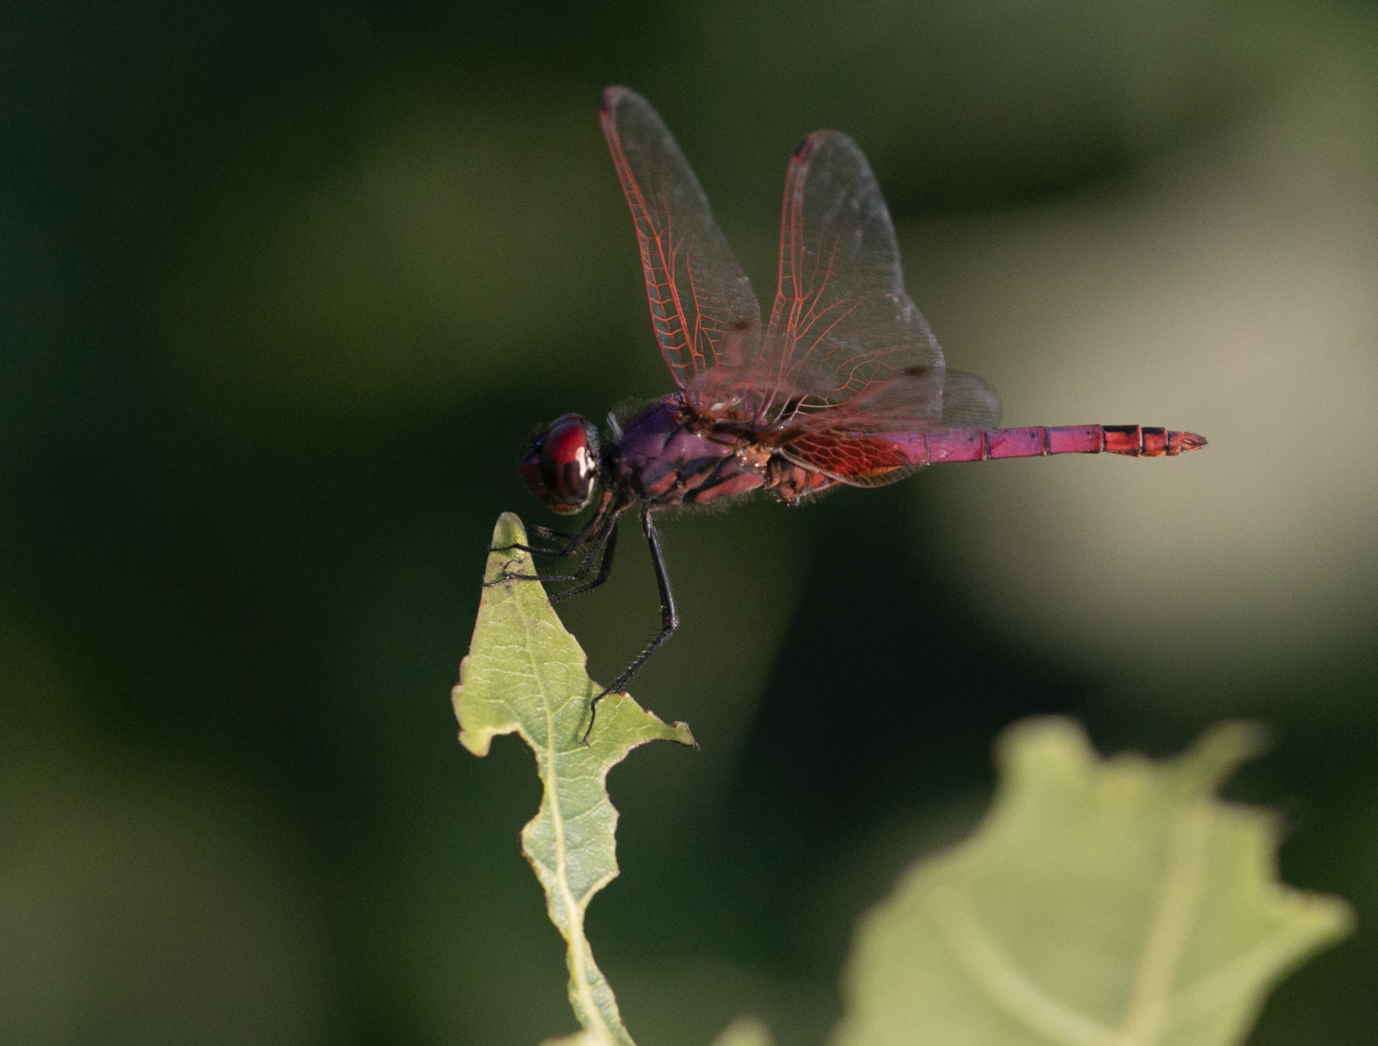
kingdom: Animalia
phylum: Arthropoda
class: Insecta
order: Odonata
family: Libellulidae
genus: Trithemis
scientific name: Trithemis annulata
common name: Violet dropwing
